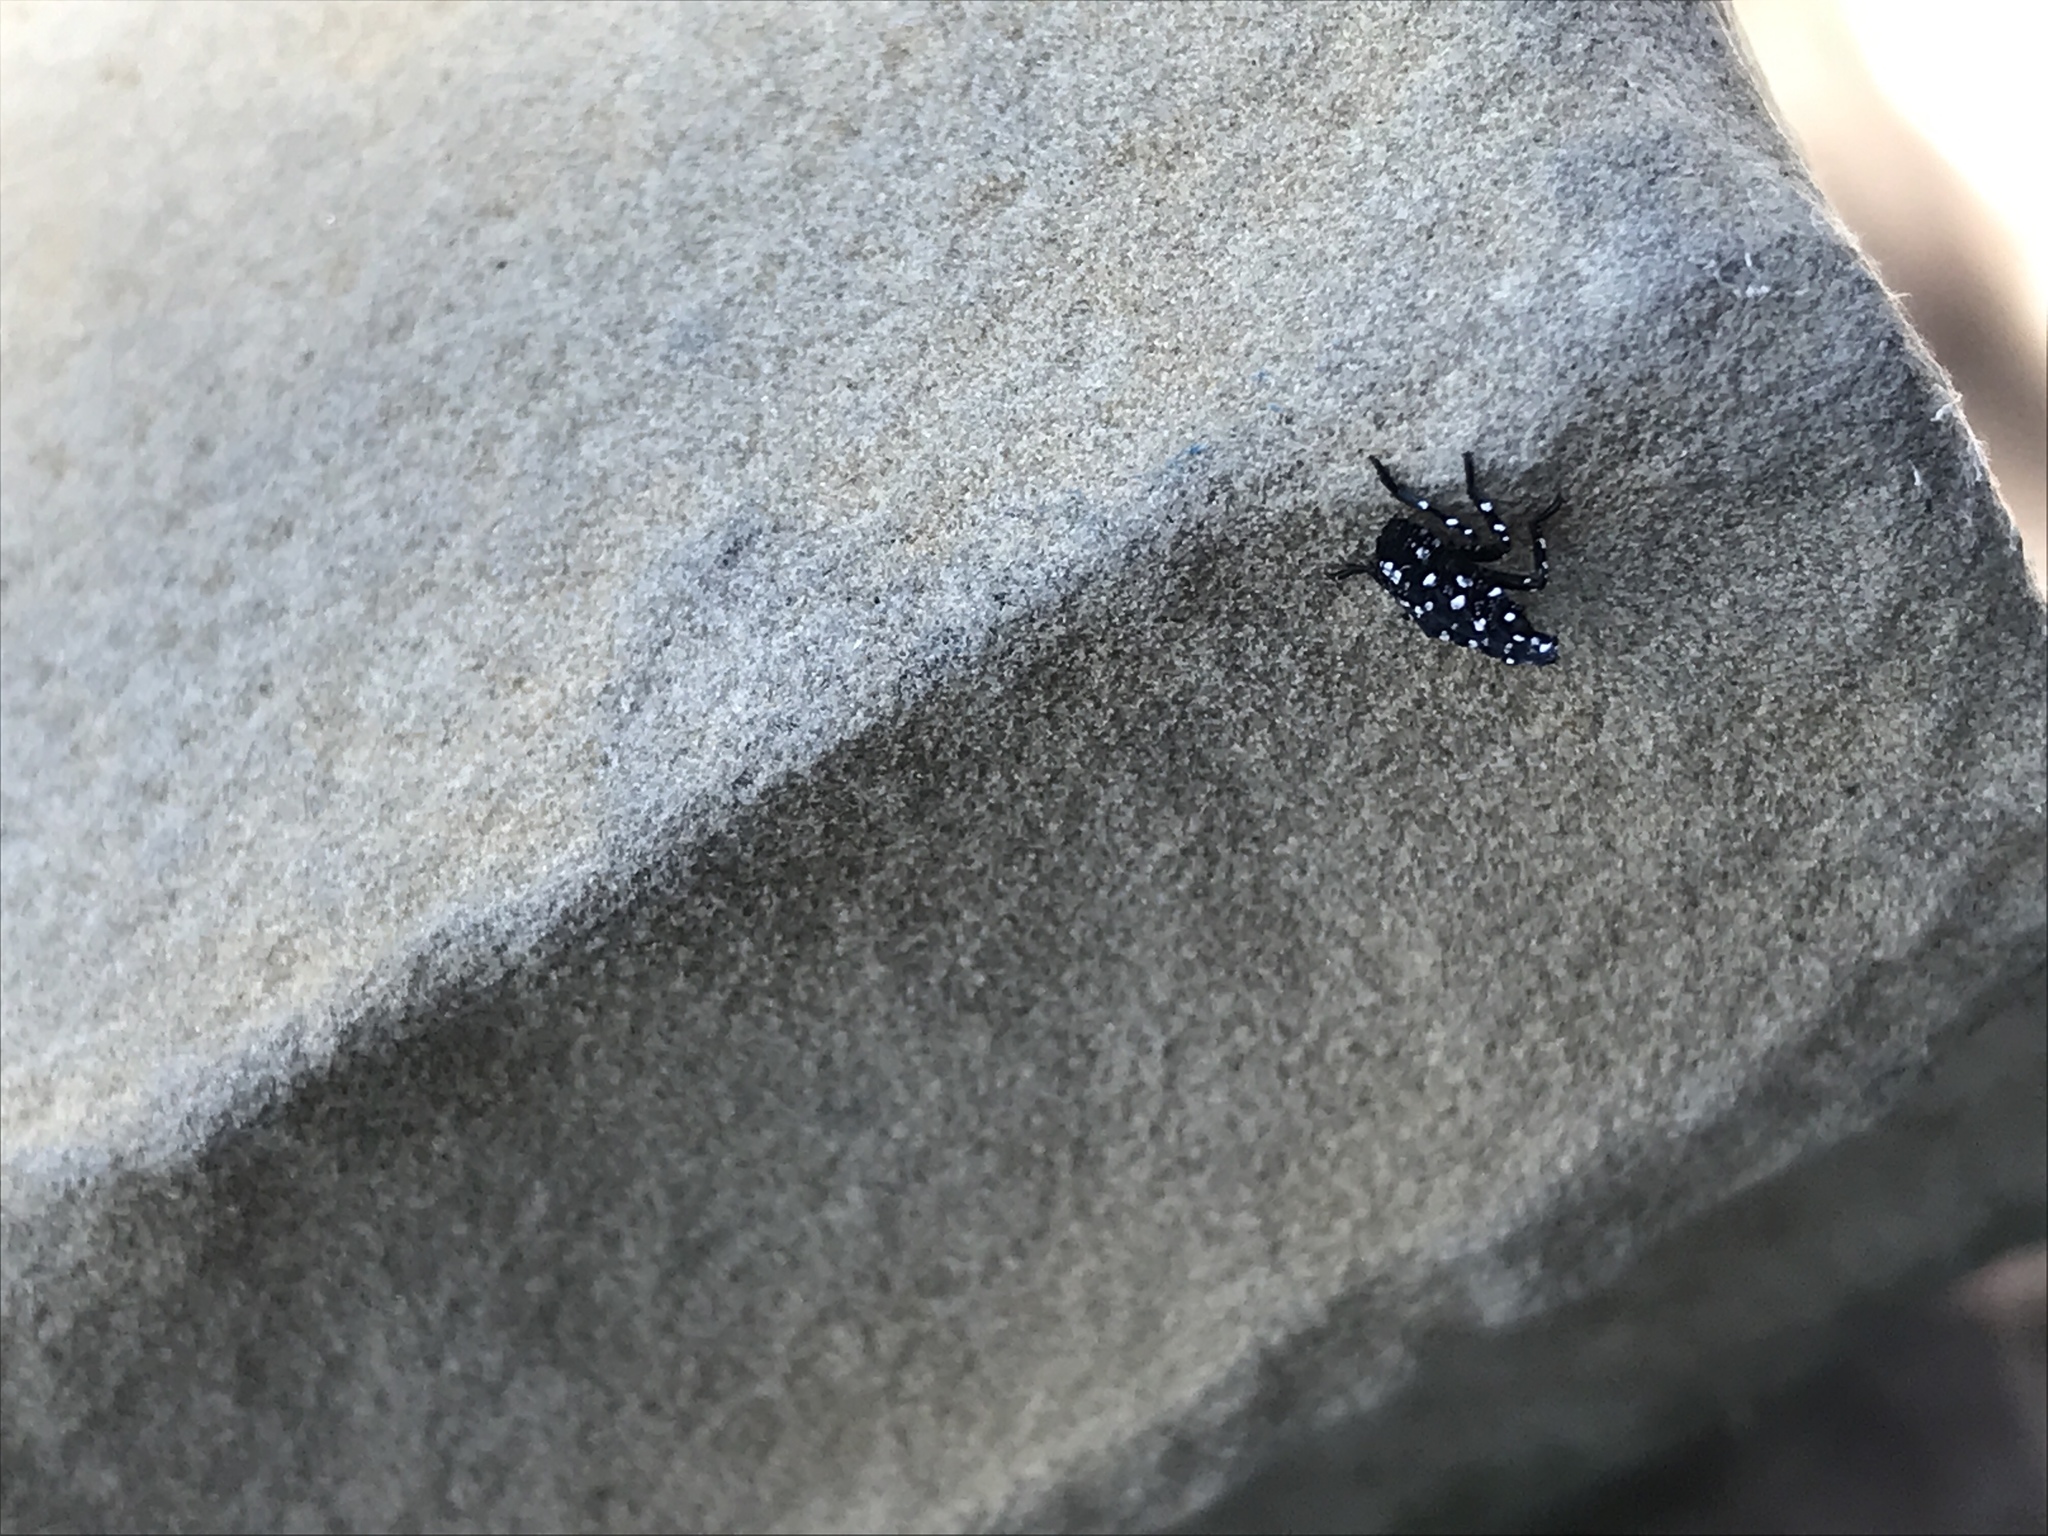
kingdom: Animalia
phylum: Arthropoda
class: Insecta
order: Hemiptera
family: Fulgoridae
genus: Lycorma
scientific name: Lycorma delicatula
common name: Spotted lanternfly
